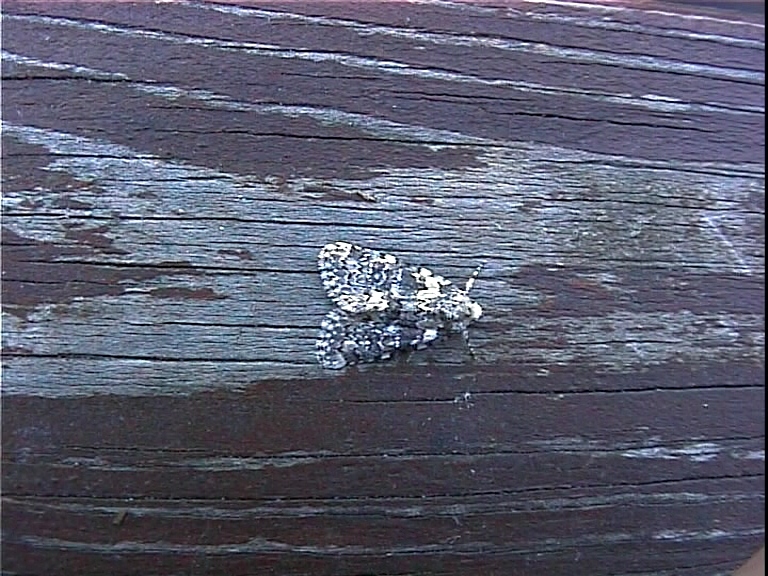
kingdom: Animalia
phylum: Arthropoda
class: Insecta
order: Lepidoptera
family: Noctuidae
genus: Bryophila
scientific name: Bryophila domestica
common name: Marbled beauty
